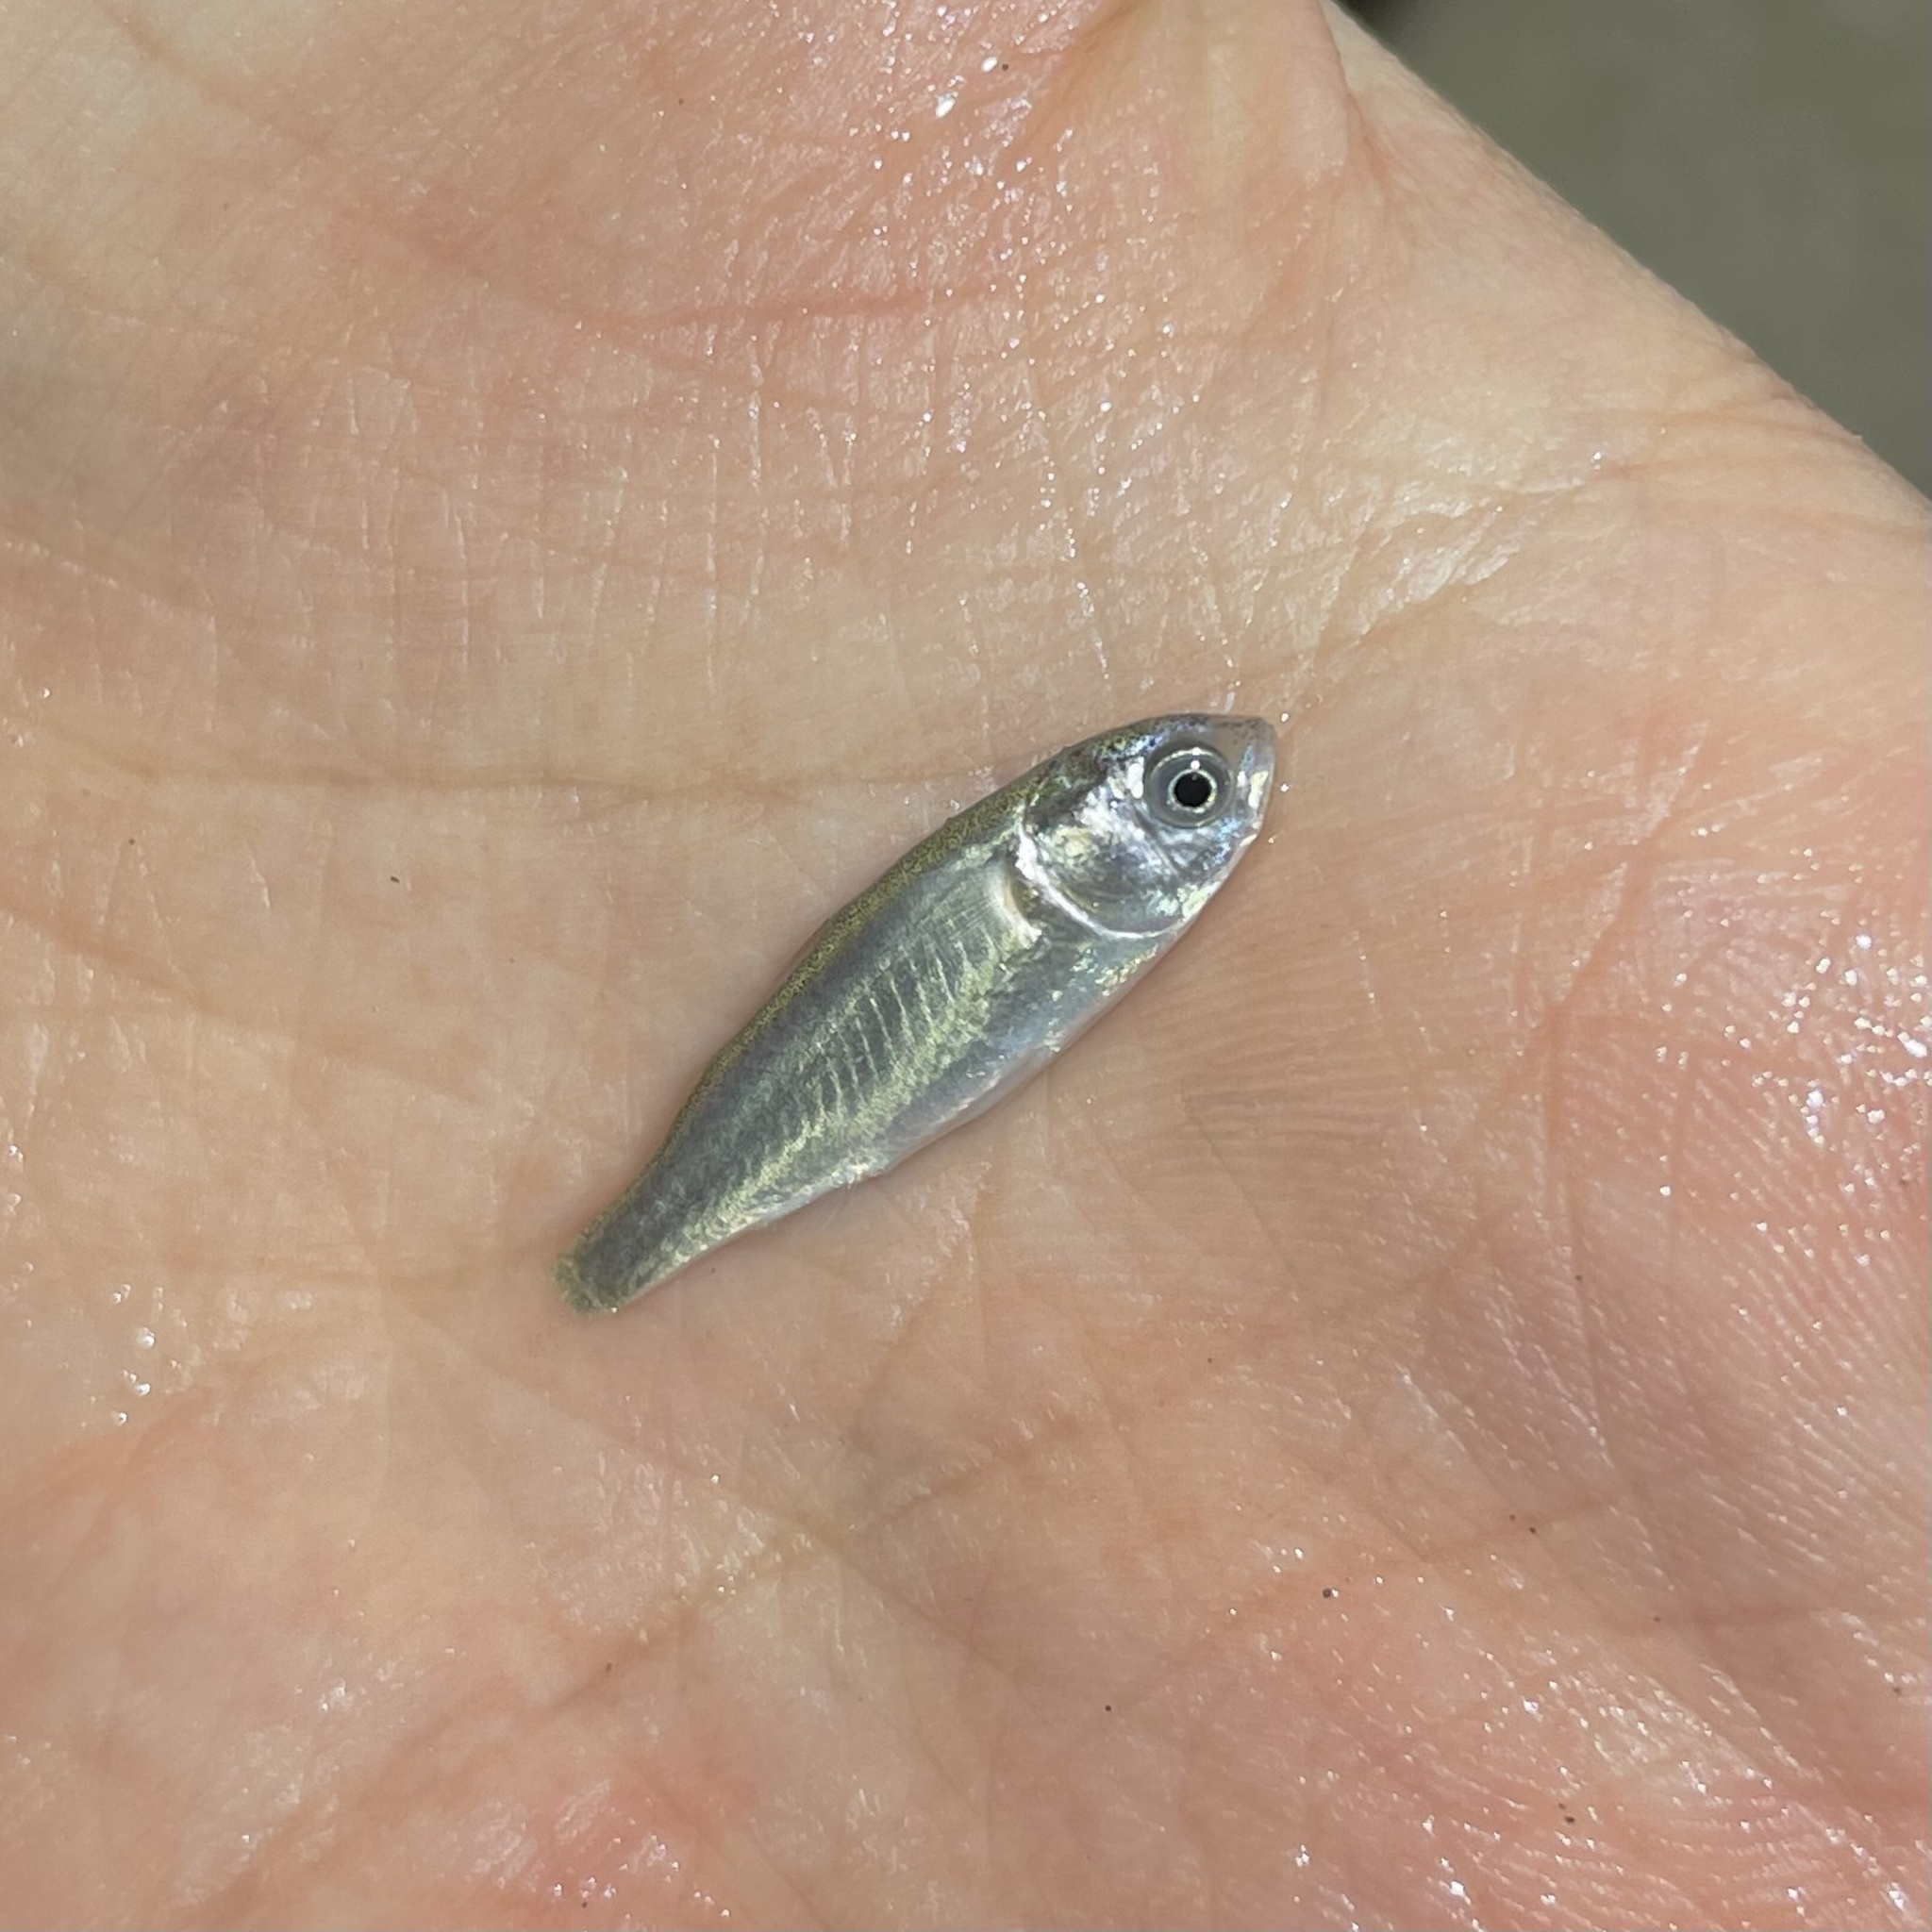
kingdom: Animalia
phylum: Chordata
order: Mugiliformes
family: Mugilidae
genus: Mugil
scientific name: Mugil cephalus
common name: Grey mullet
